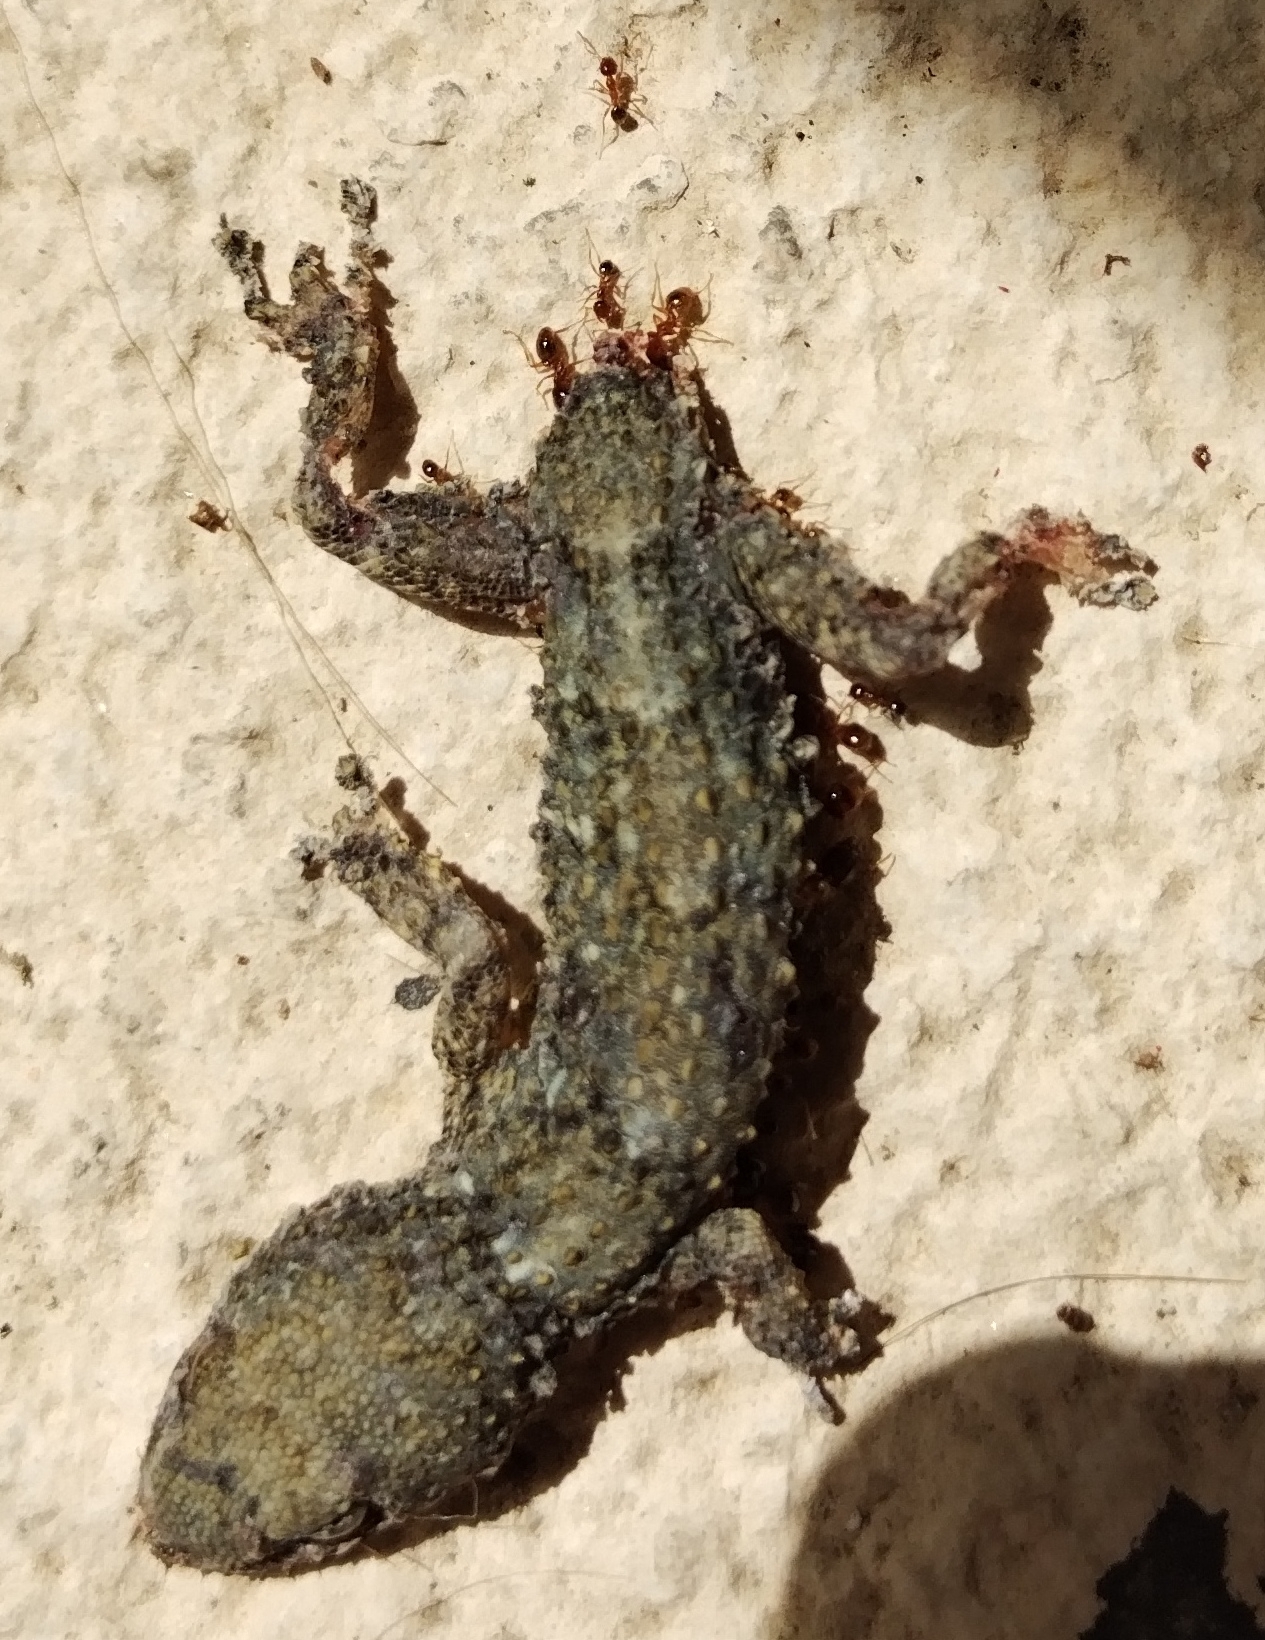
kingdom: Animalia
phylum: Chordata
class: Squamata
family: Phyllodactylidae
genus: Tarentola
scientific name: Tarentola mauritanica
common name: Moorish gecko
